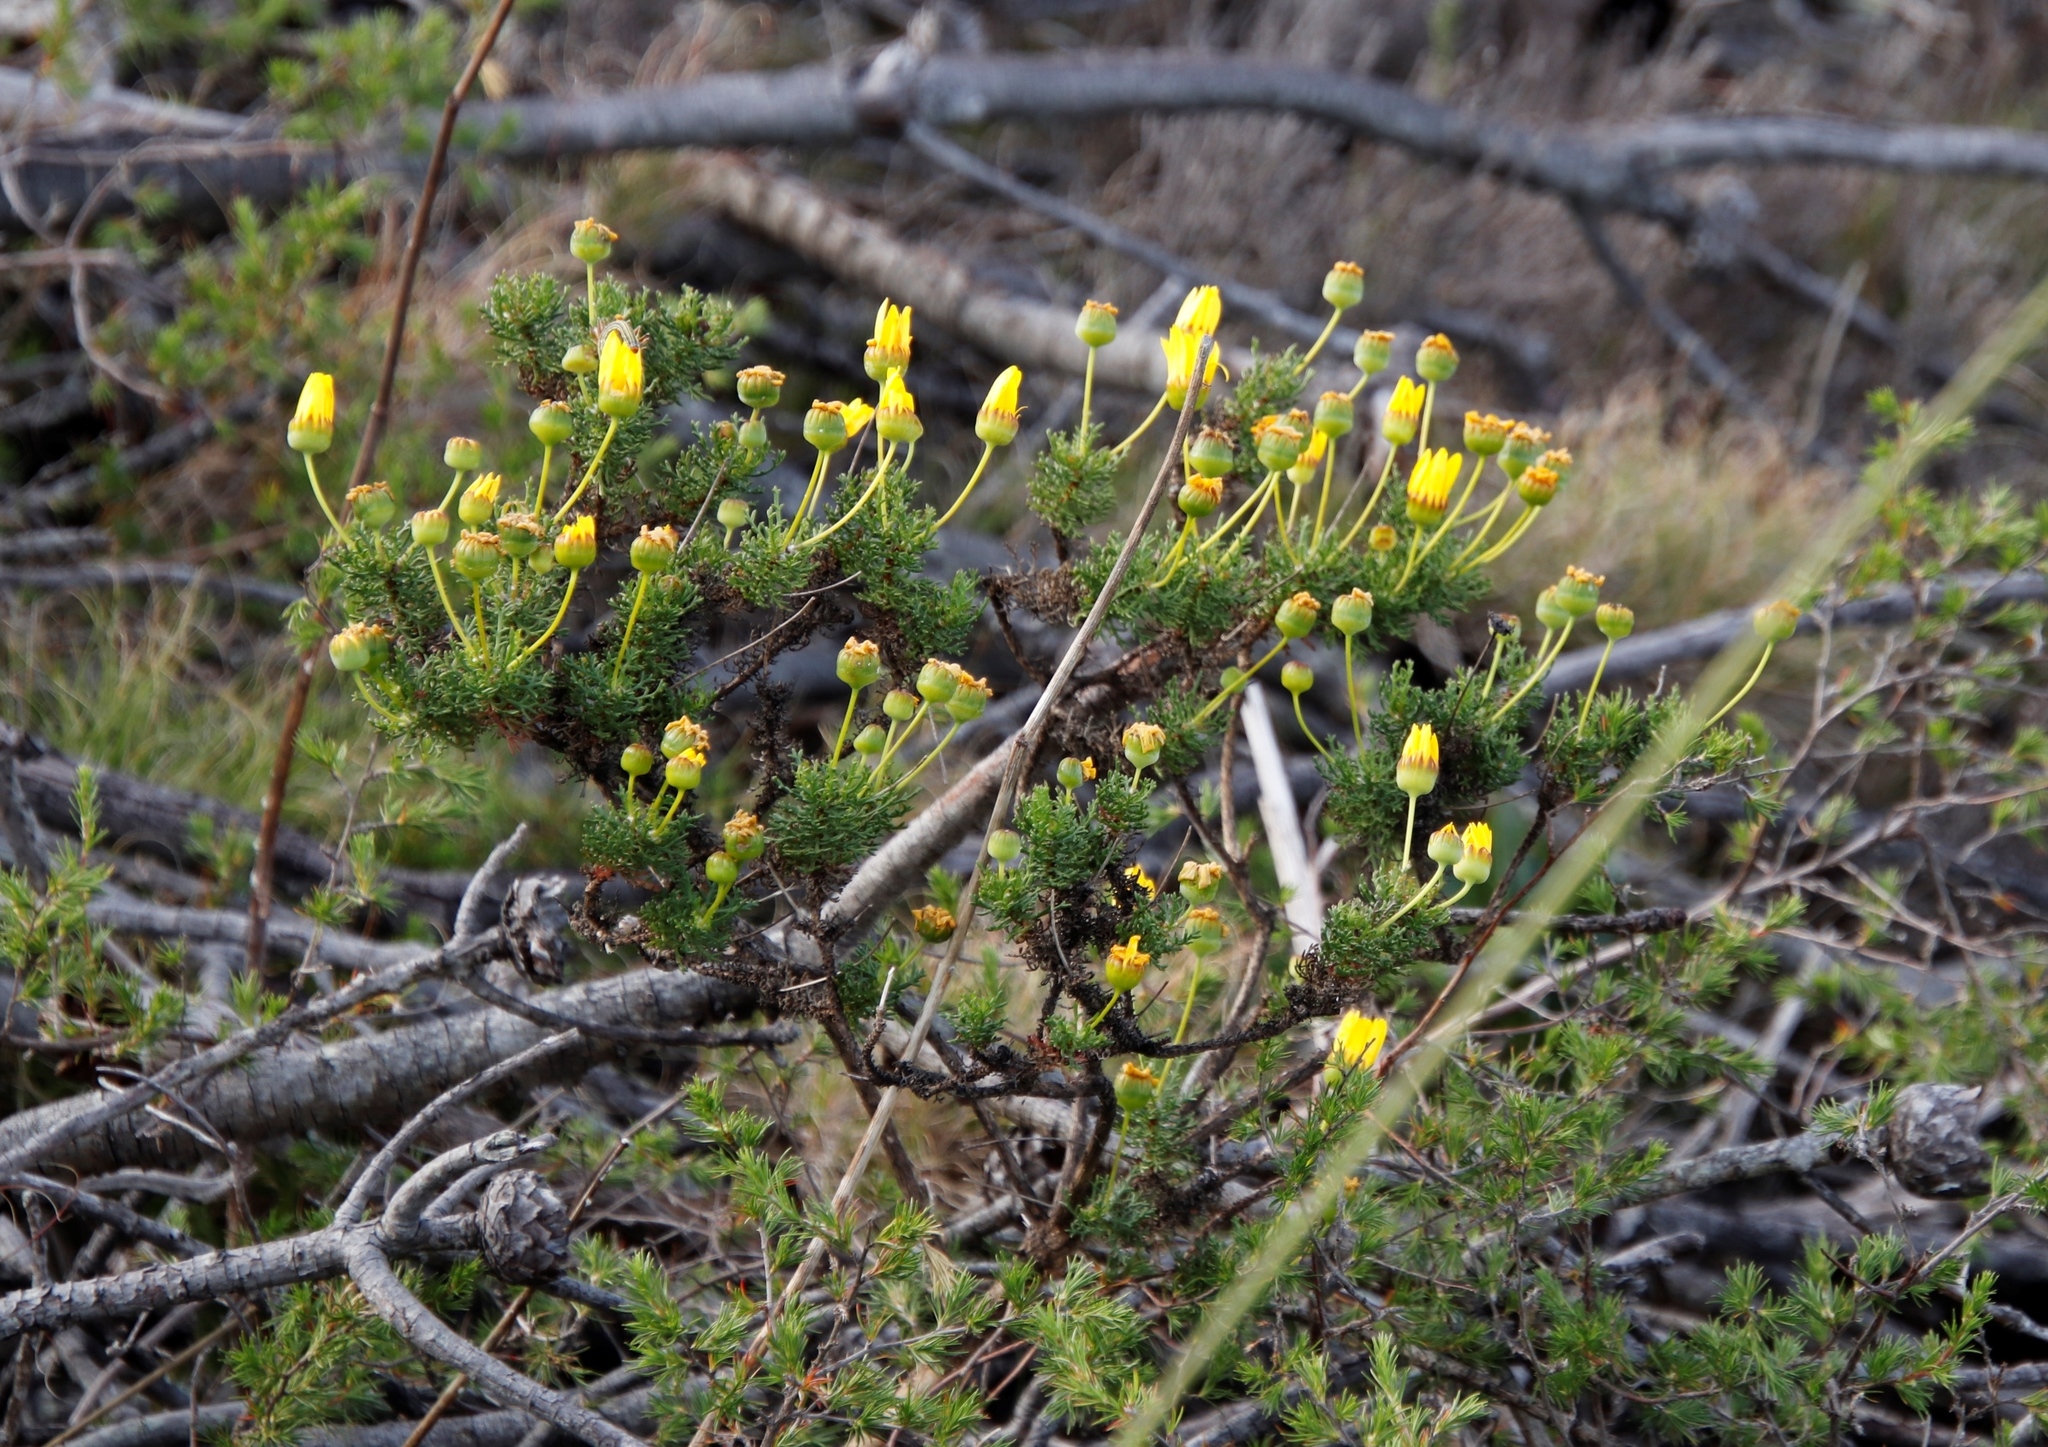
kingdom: Plantae
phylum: Tracheophyta
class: Magnoliopsida
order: Asterales
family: Asteraceae
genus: Euryops
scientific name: Euryops abrotanifolius
